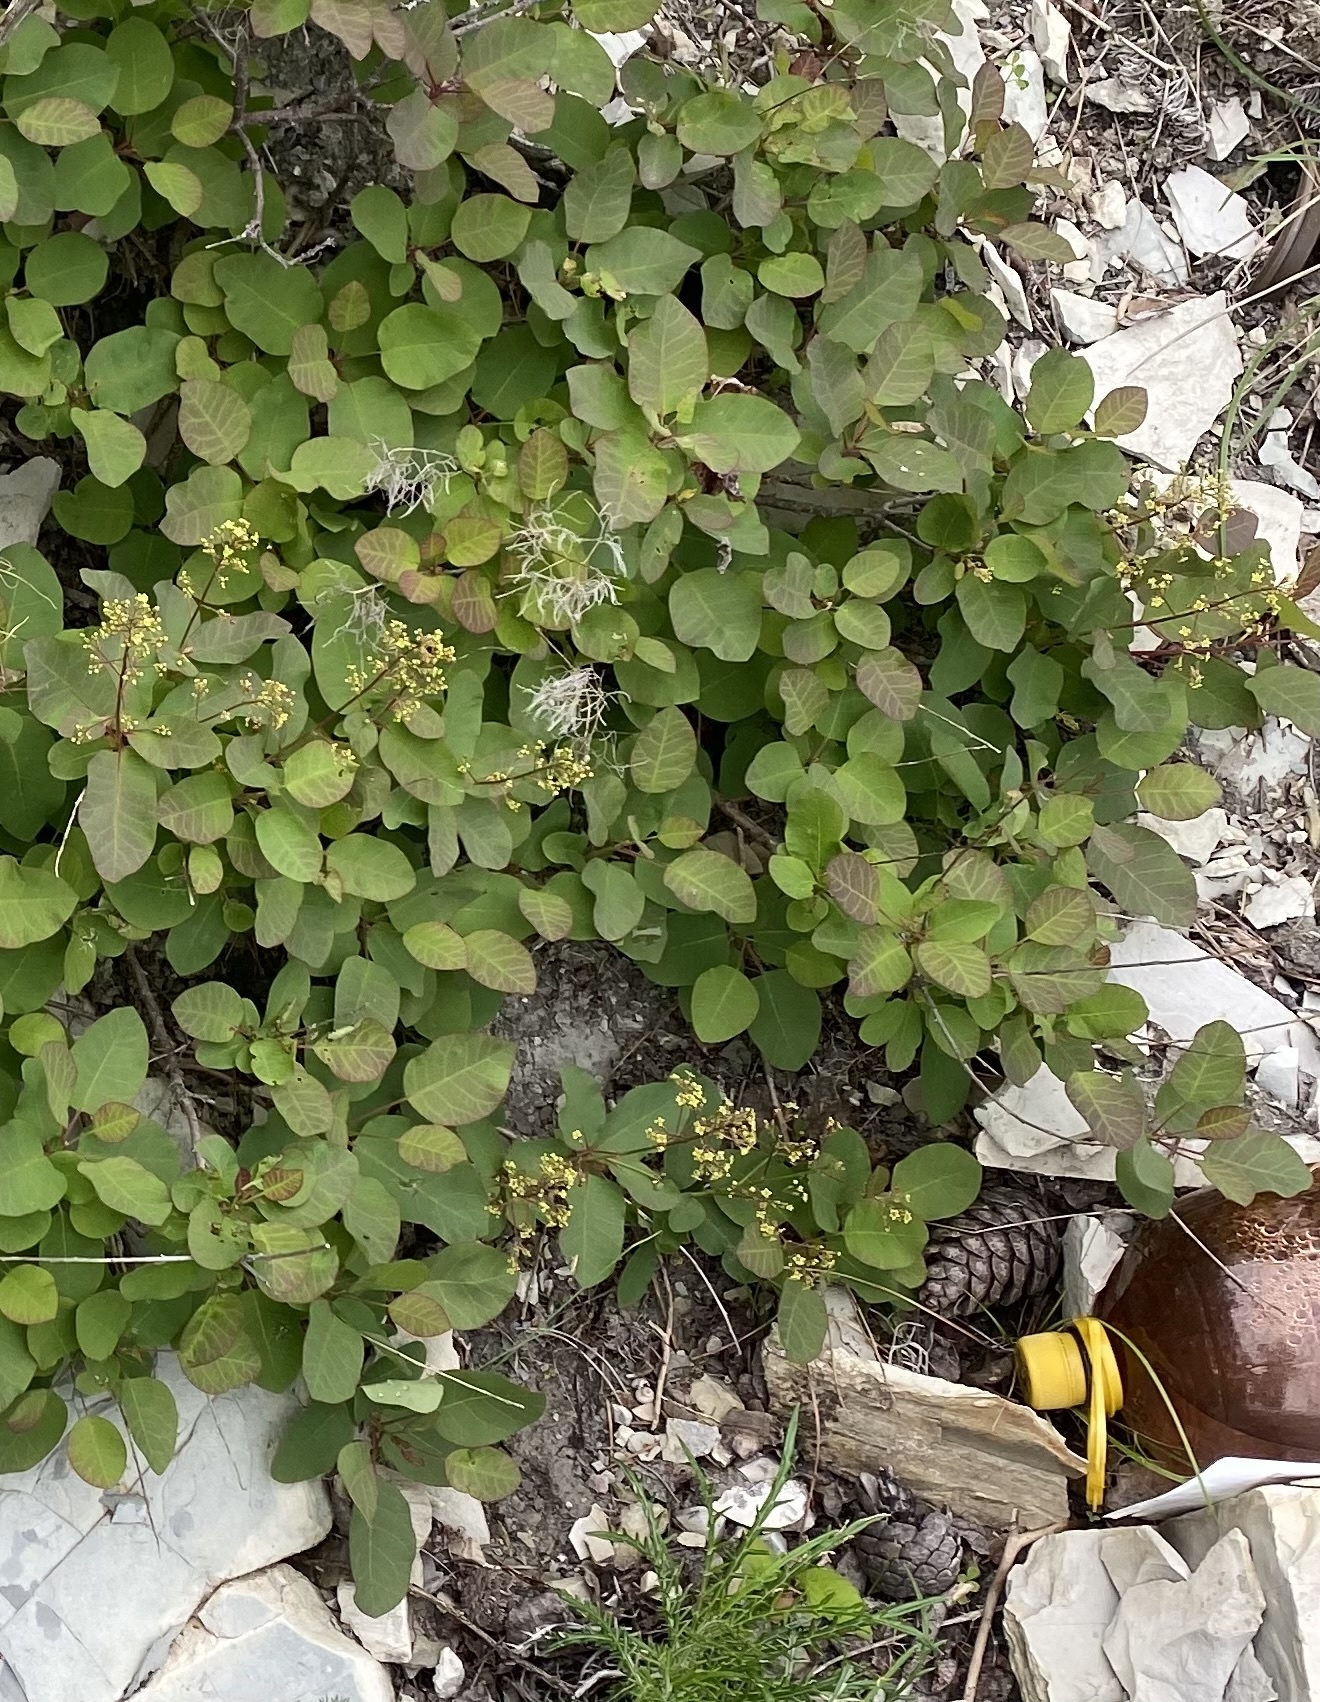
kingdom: Plantae
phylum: Tracheophyta
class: Magnoliopsida
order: Sapindales
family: Anacardiaceae
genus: Cotinus
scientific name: Cotinus coggygria
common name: Smoke-tree
